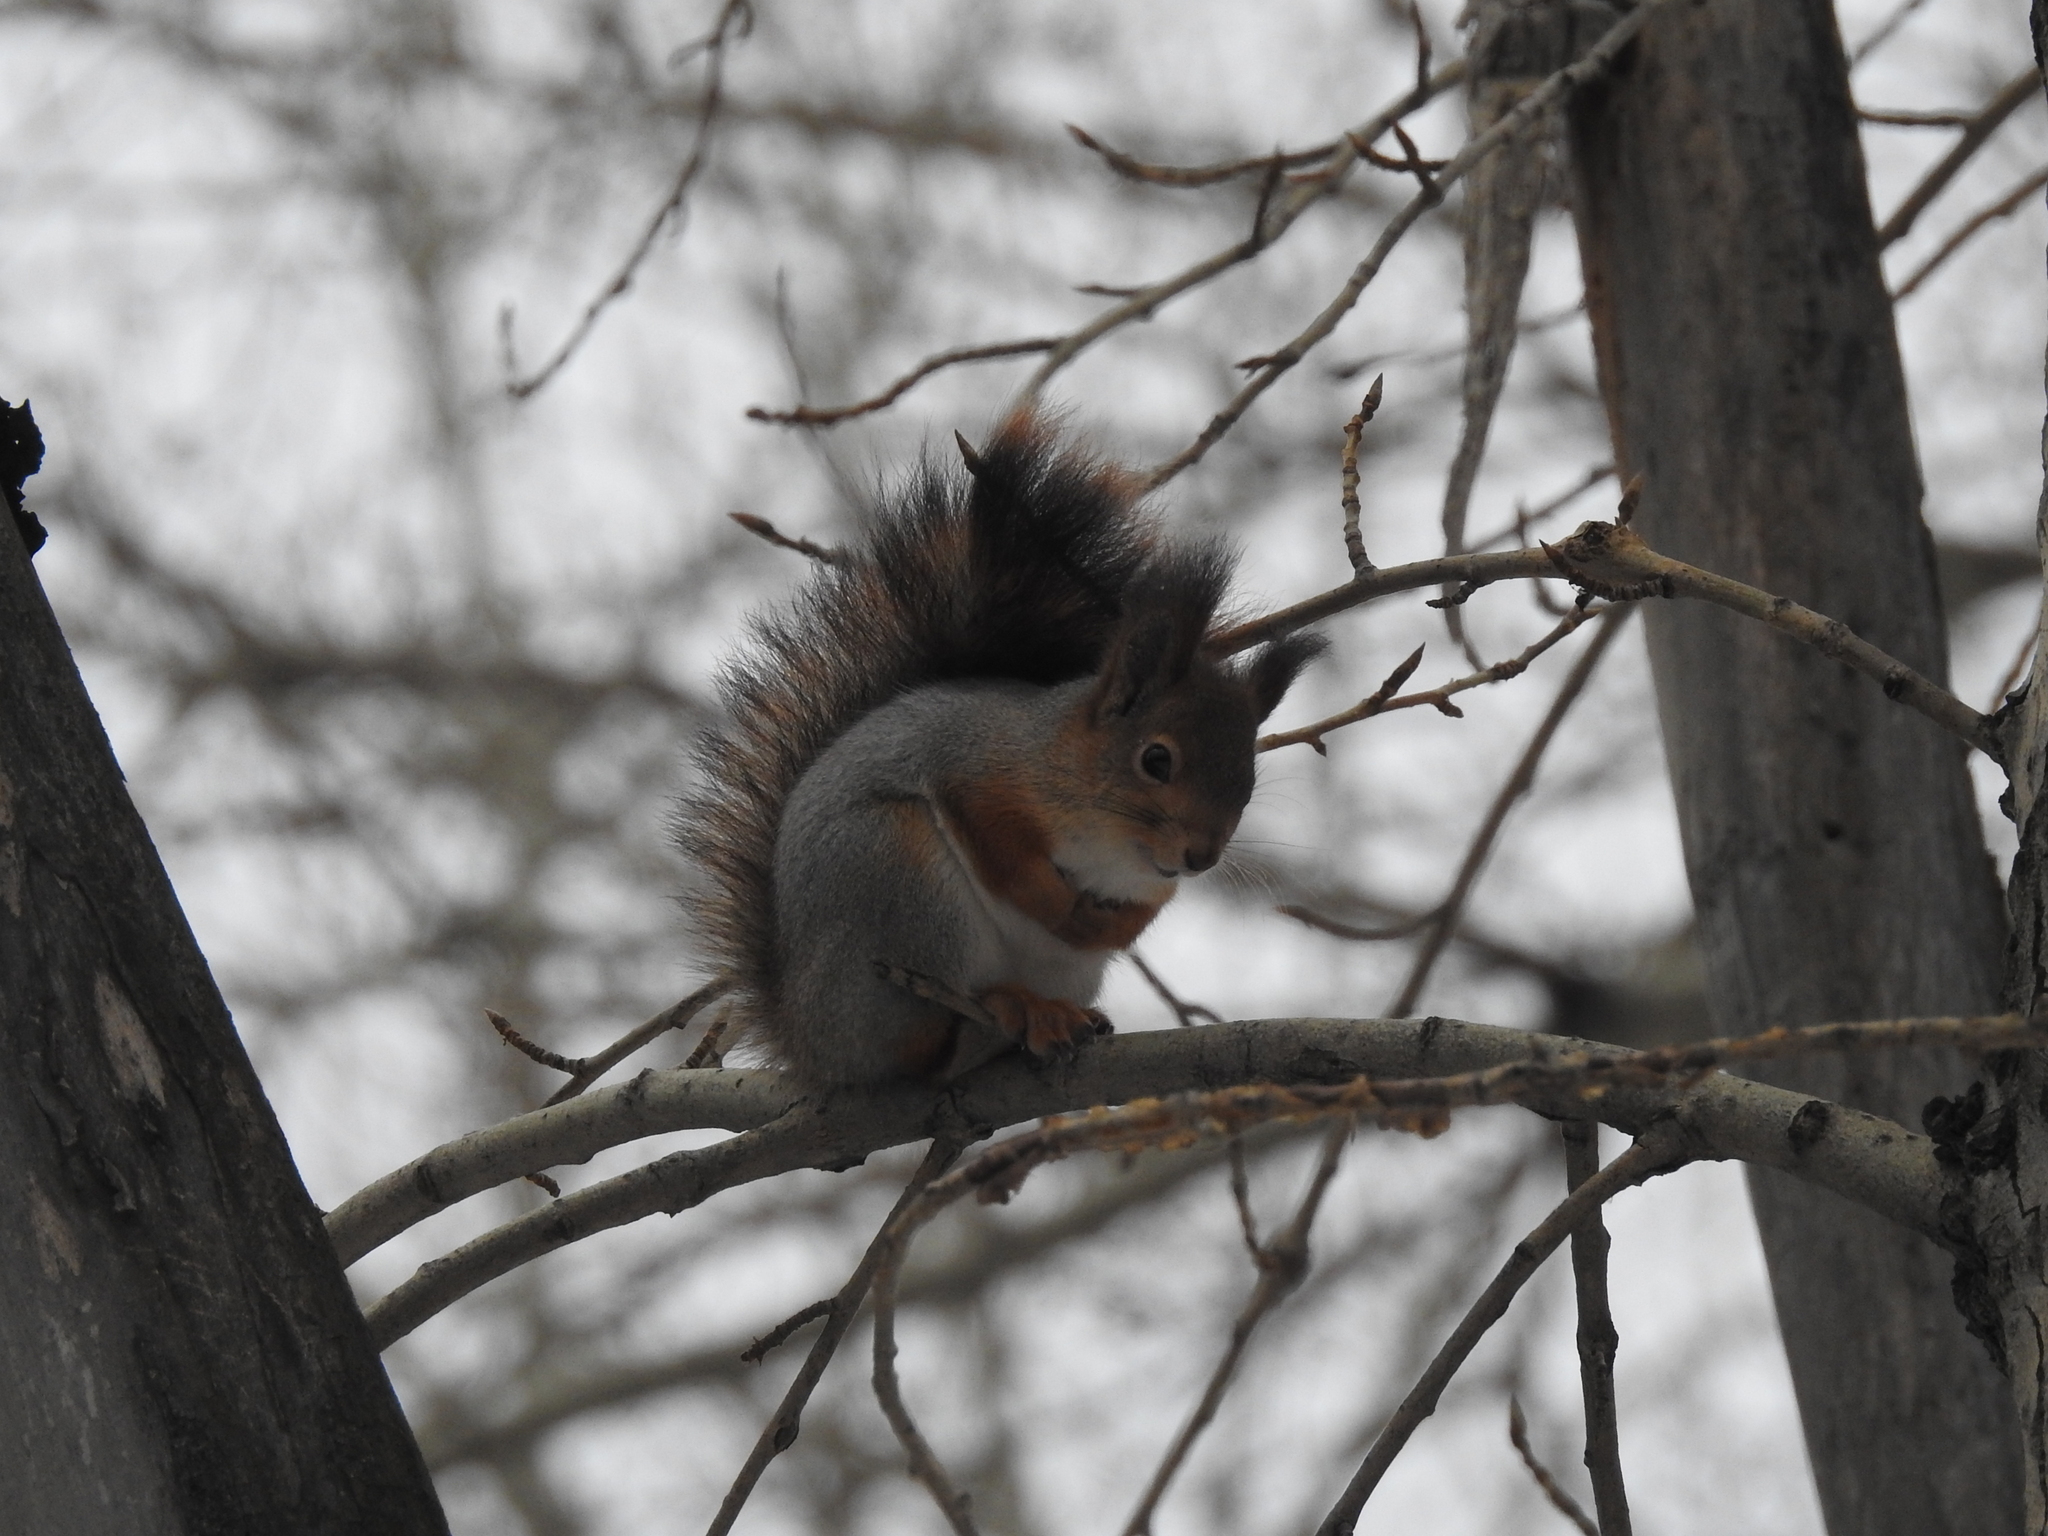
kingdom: Animalia
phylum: Chordata
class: Mammalia
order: Rodentia
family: Sciuridae
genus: Sciurus
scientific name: Sciurus vulgaris
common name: Eurasian red squirrel
